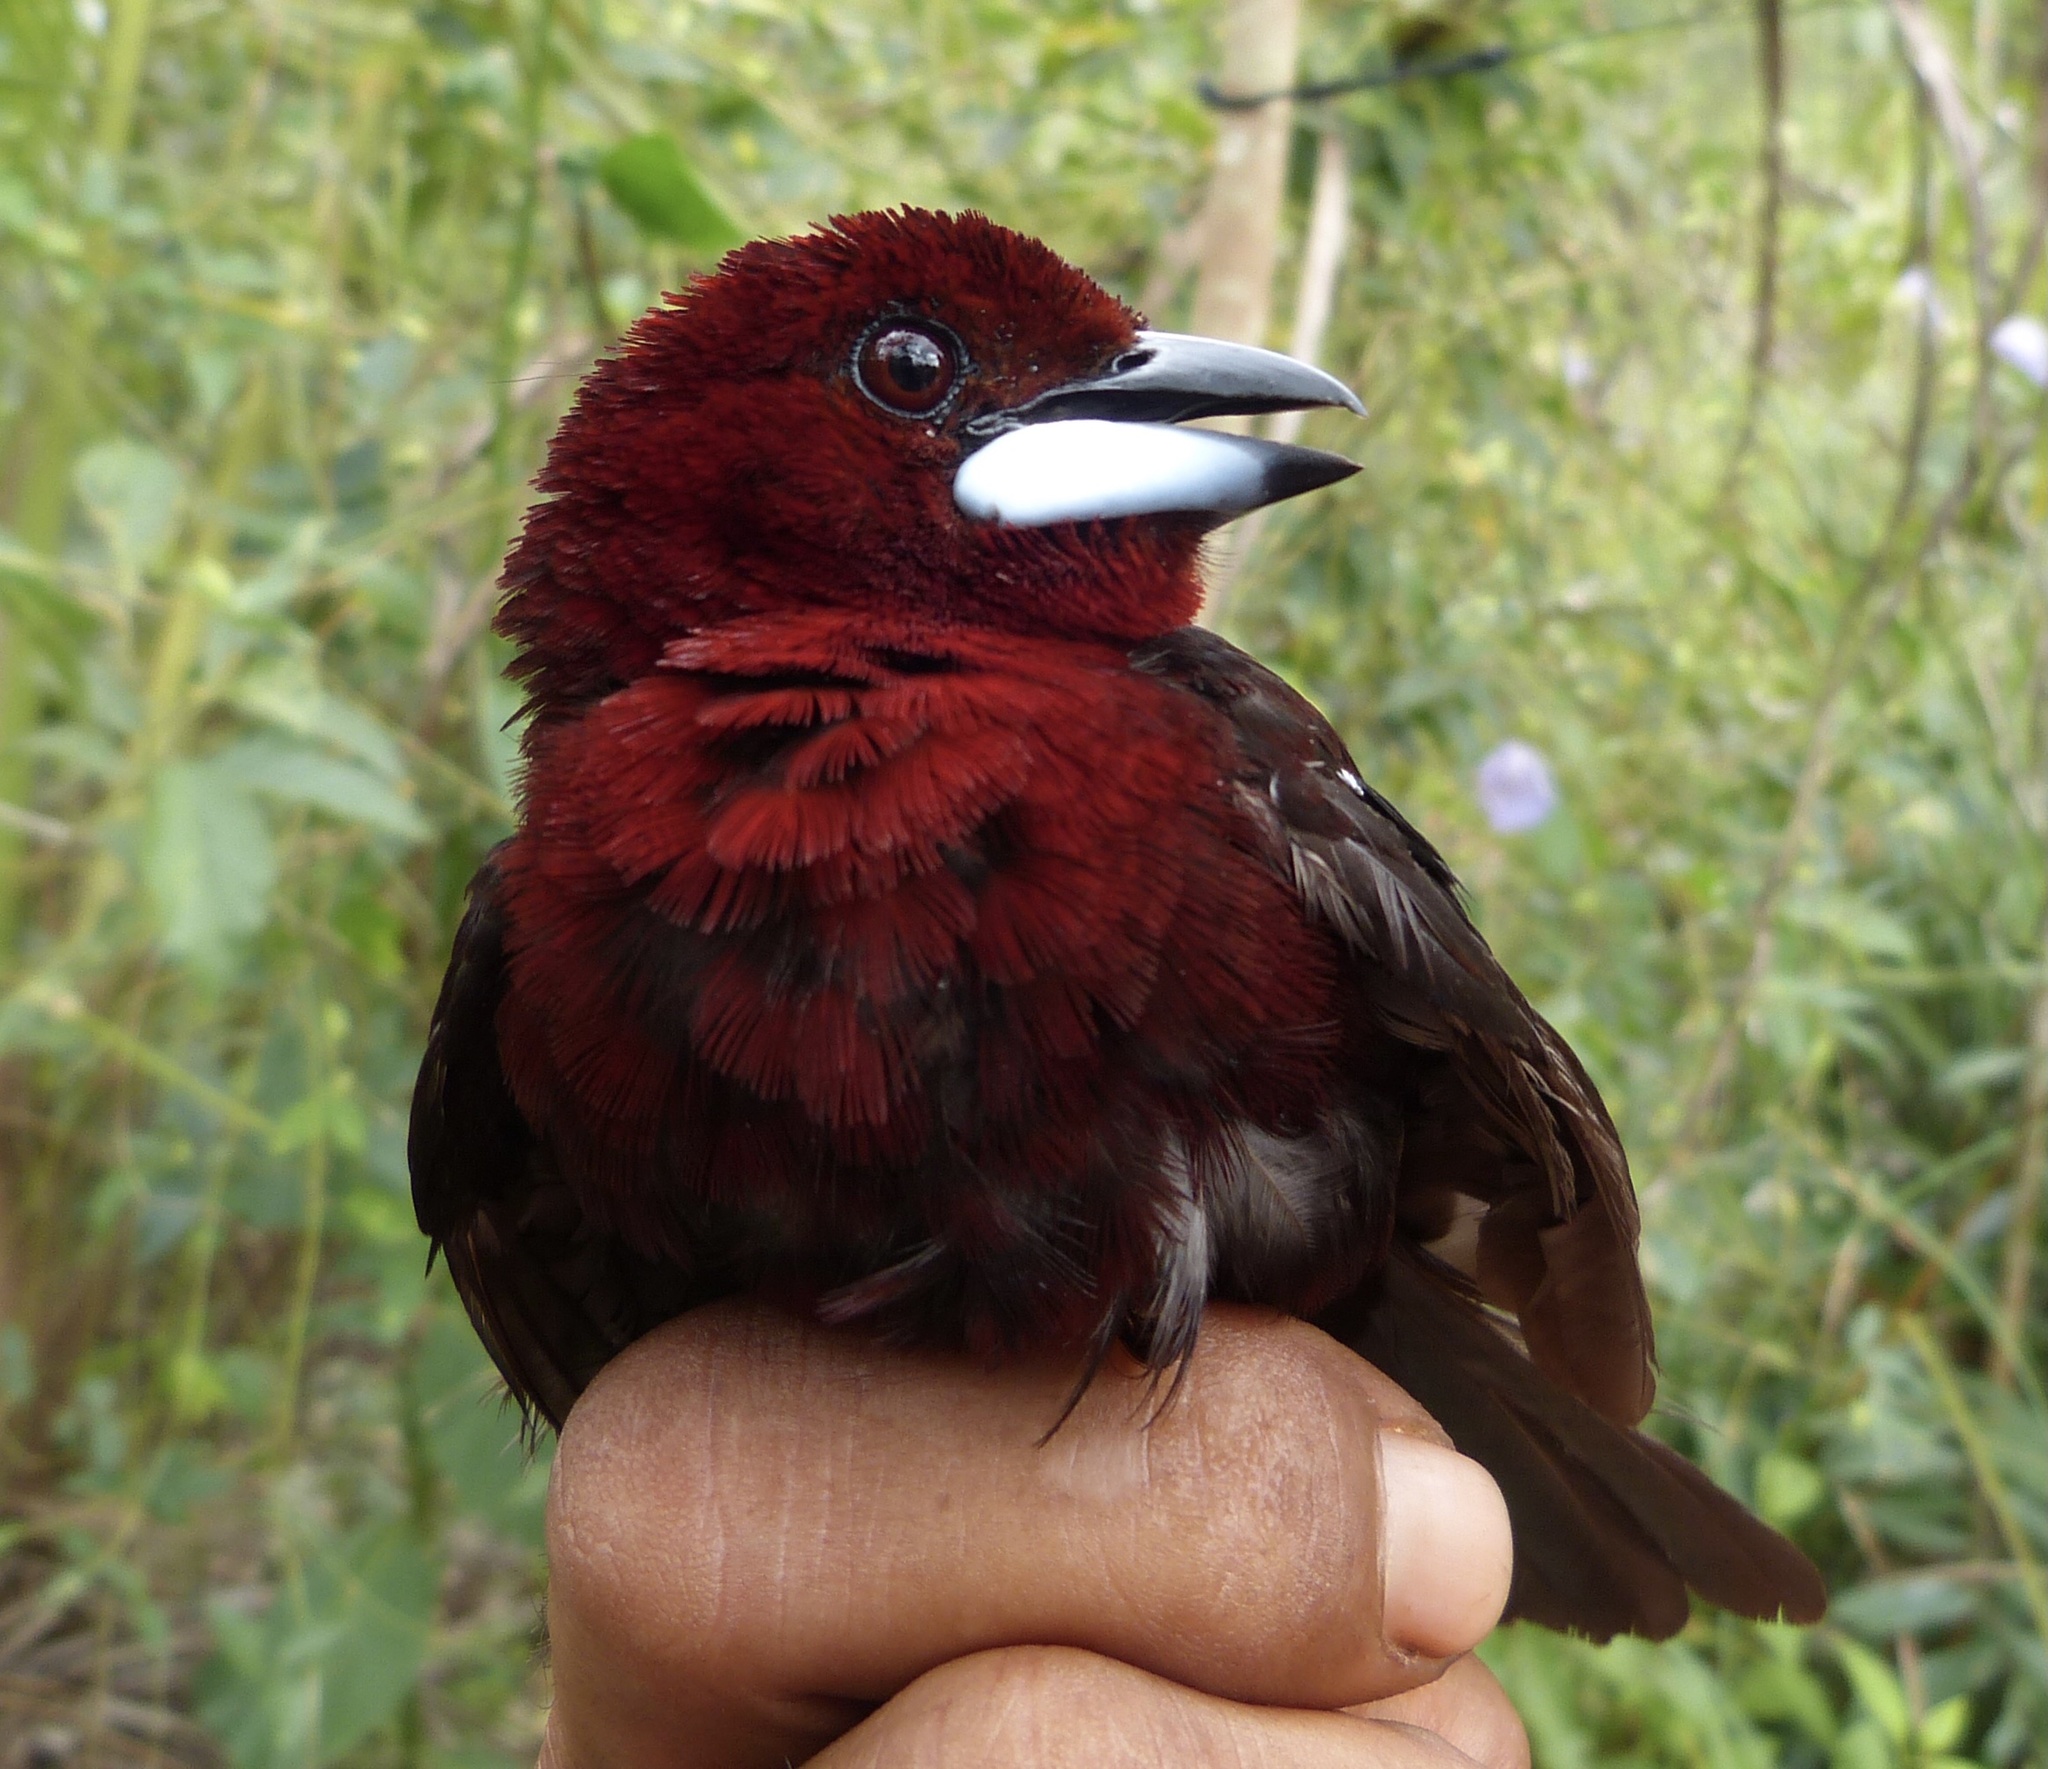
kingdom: Animalia
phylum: Chordata
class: Aves
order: Passeriformes
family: Thraupidae
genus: Ramphocelus
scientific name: Ramphocelus carbo
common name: Silver-beaked tanager
